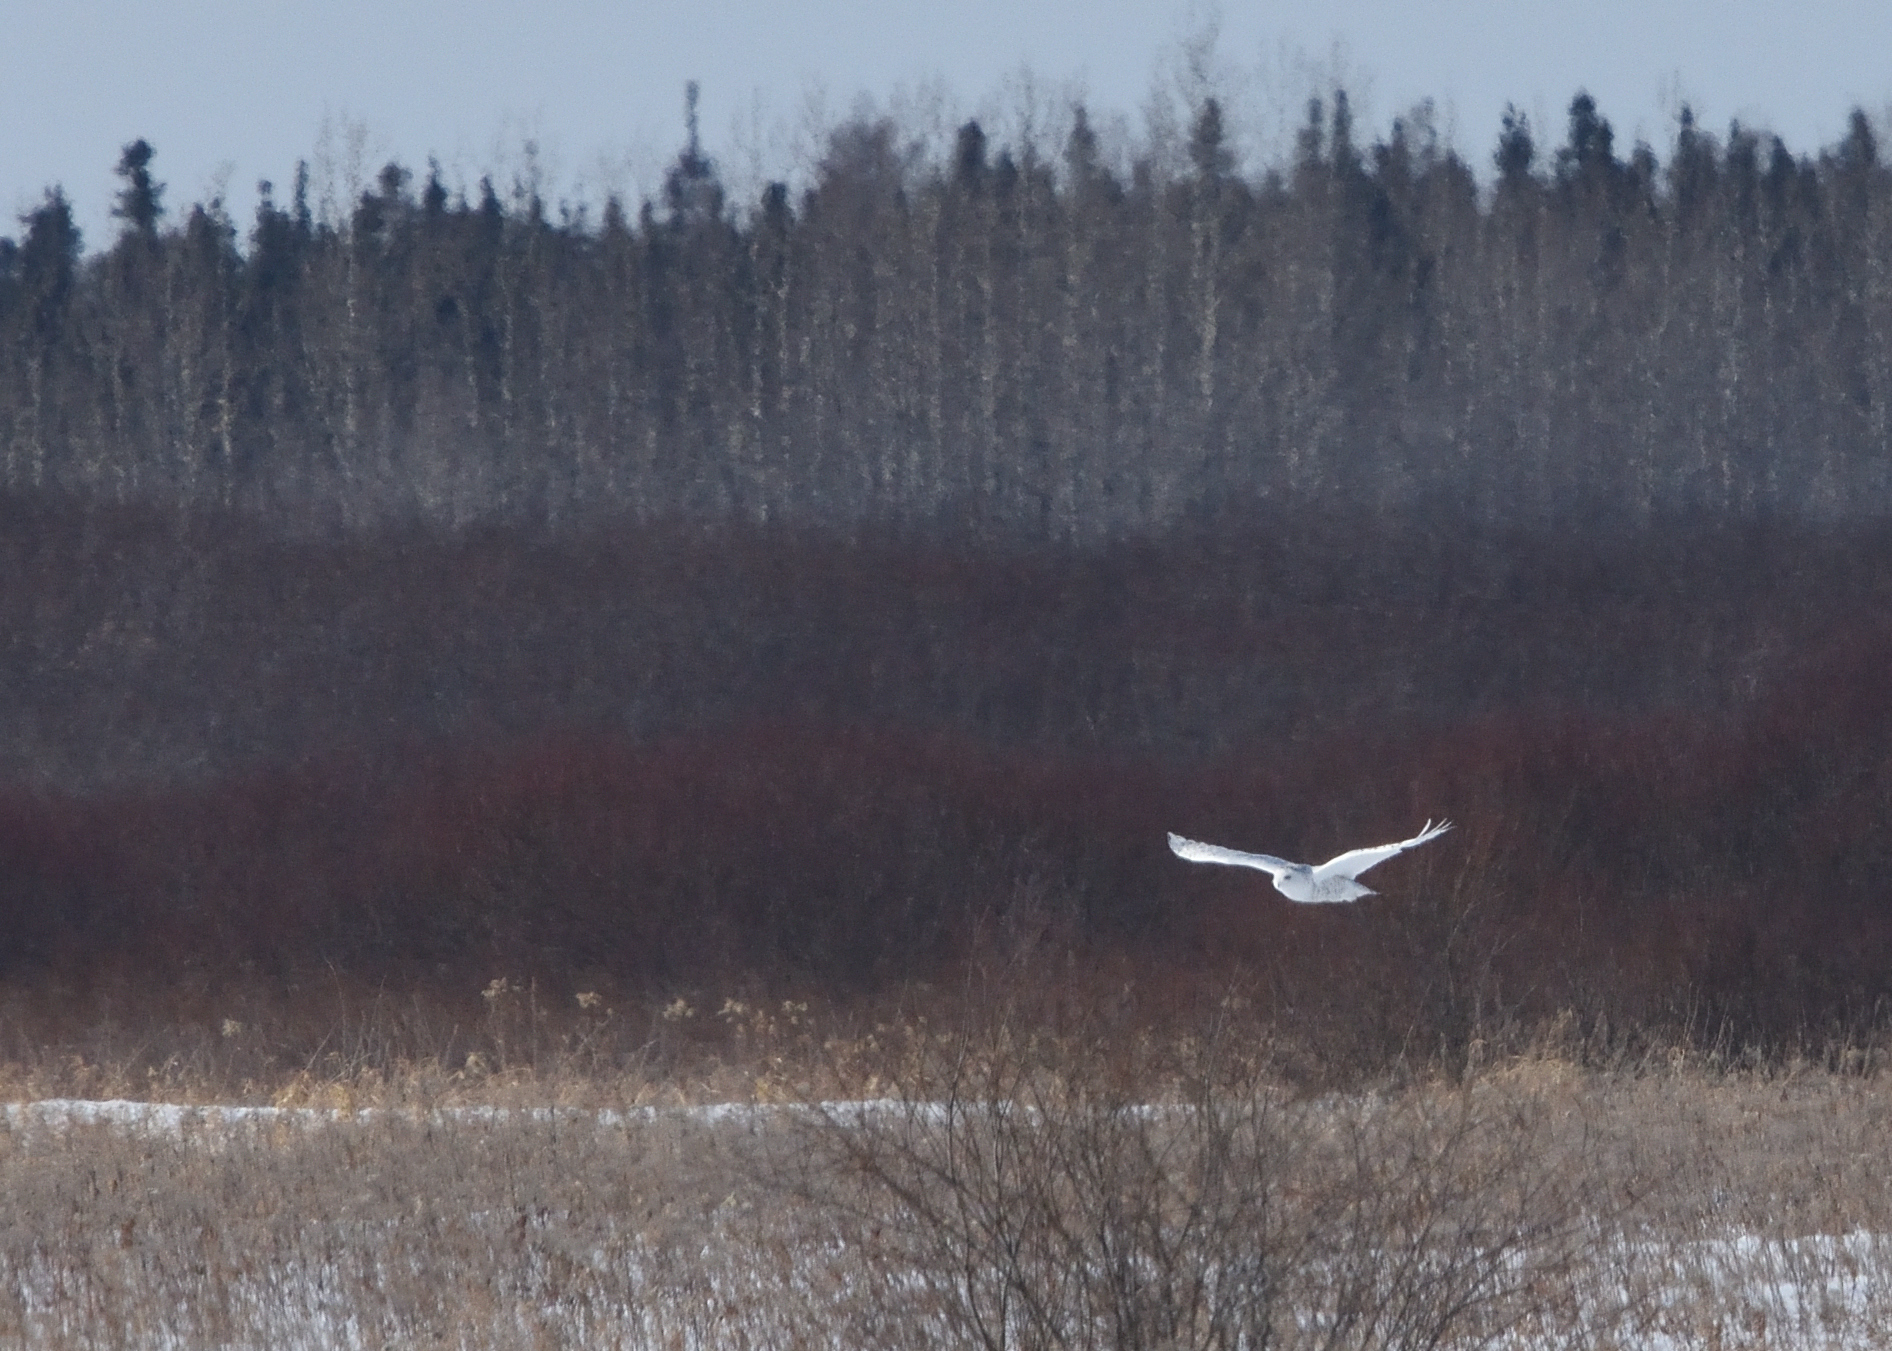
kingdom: Animalia
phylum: Chordata
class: Aves
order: Strigiformes
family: Strigidae
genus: Bubo
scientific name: Bubo scandiacus
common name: Snowy owl
